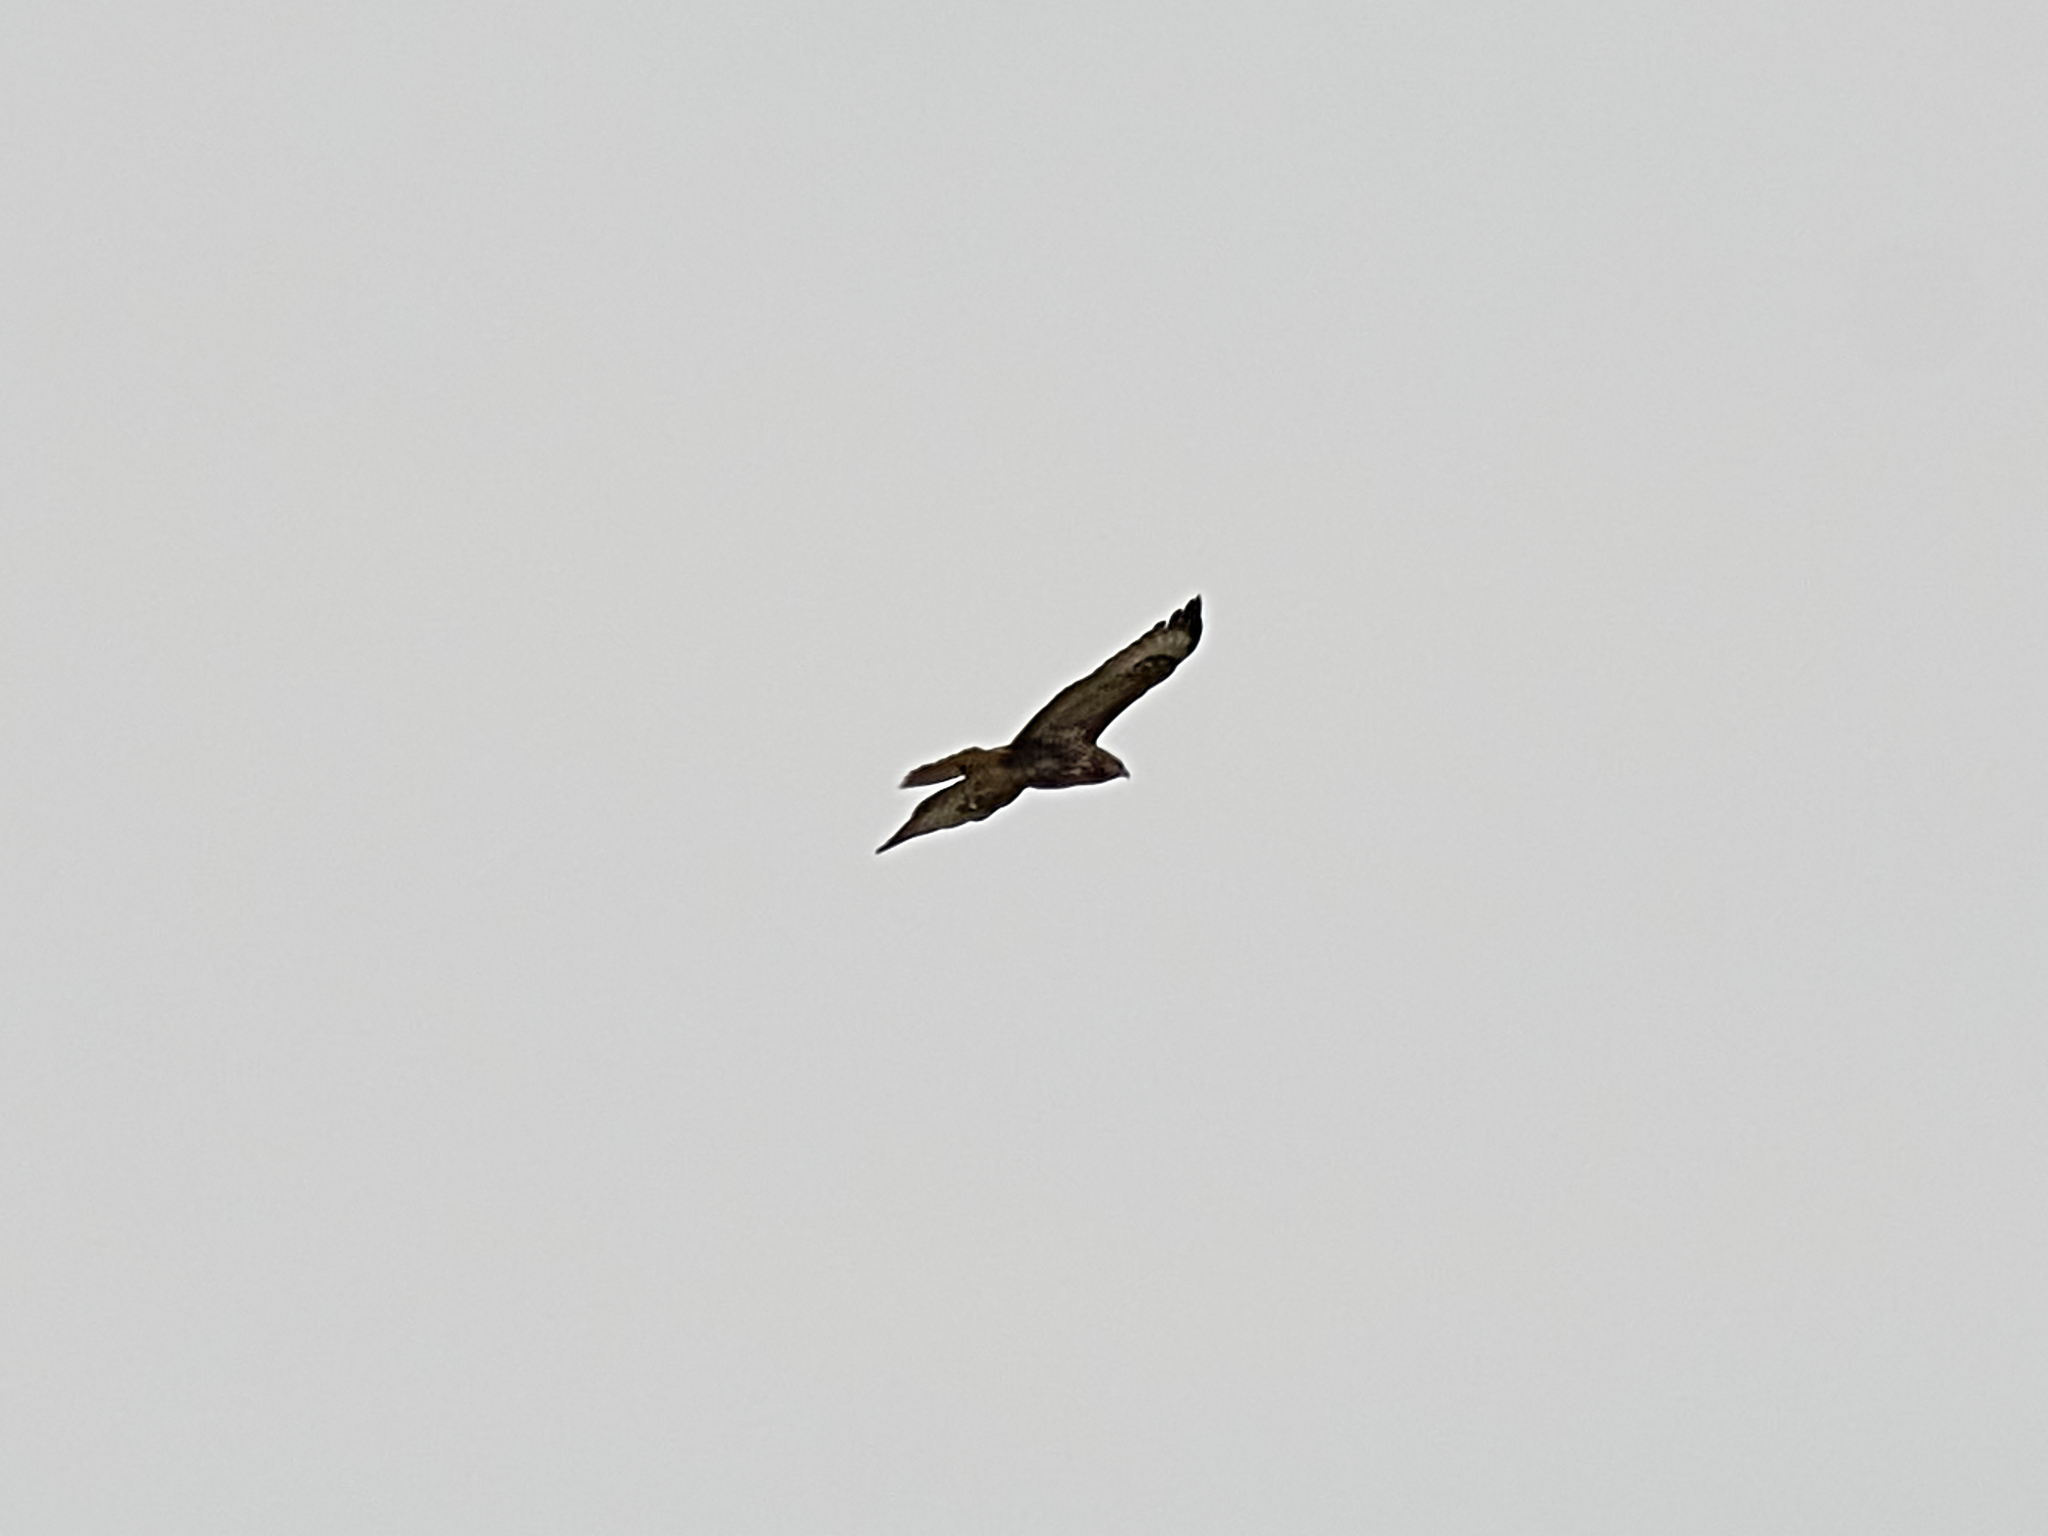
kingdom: Animalia
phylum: Chordata
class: Aves
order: Accipitriformes
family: Accipitridae
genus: Buteo
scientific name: Buteo buteo
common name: Common buzzard
